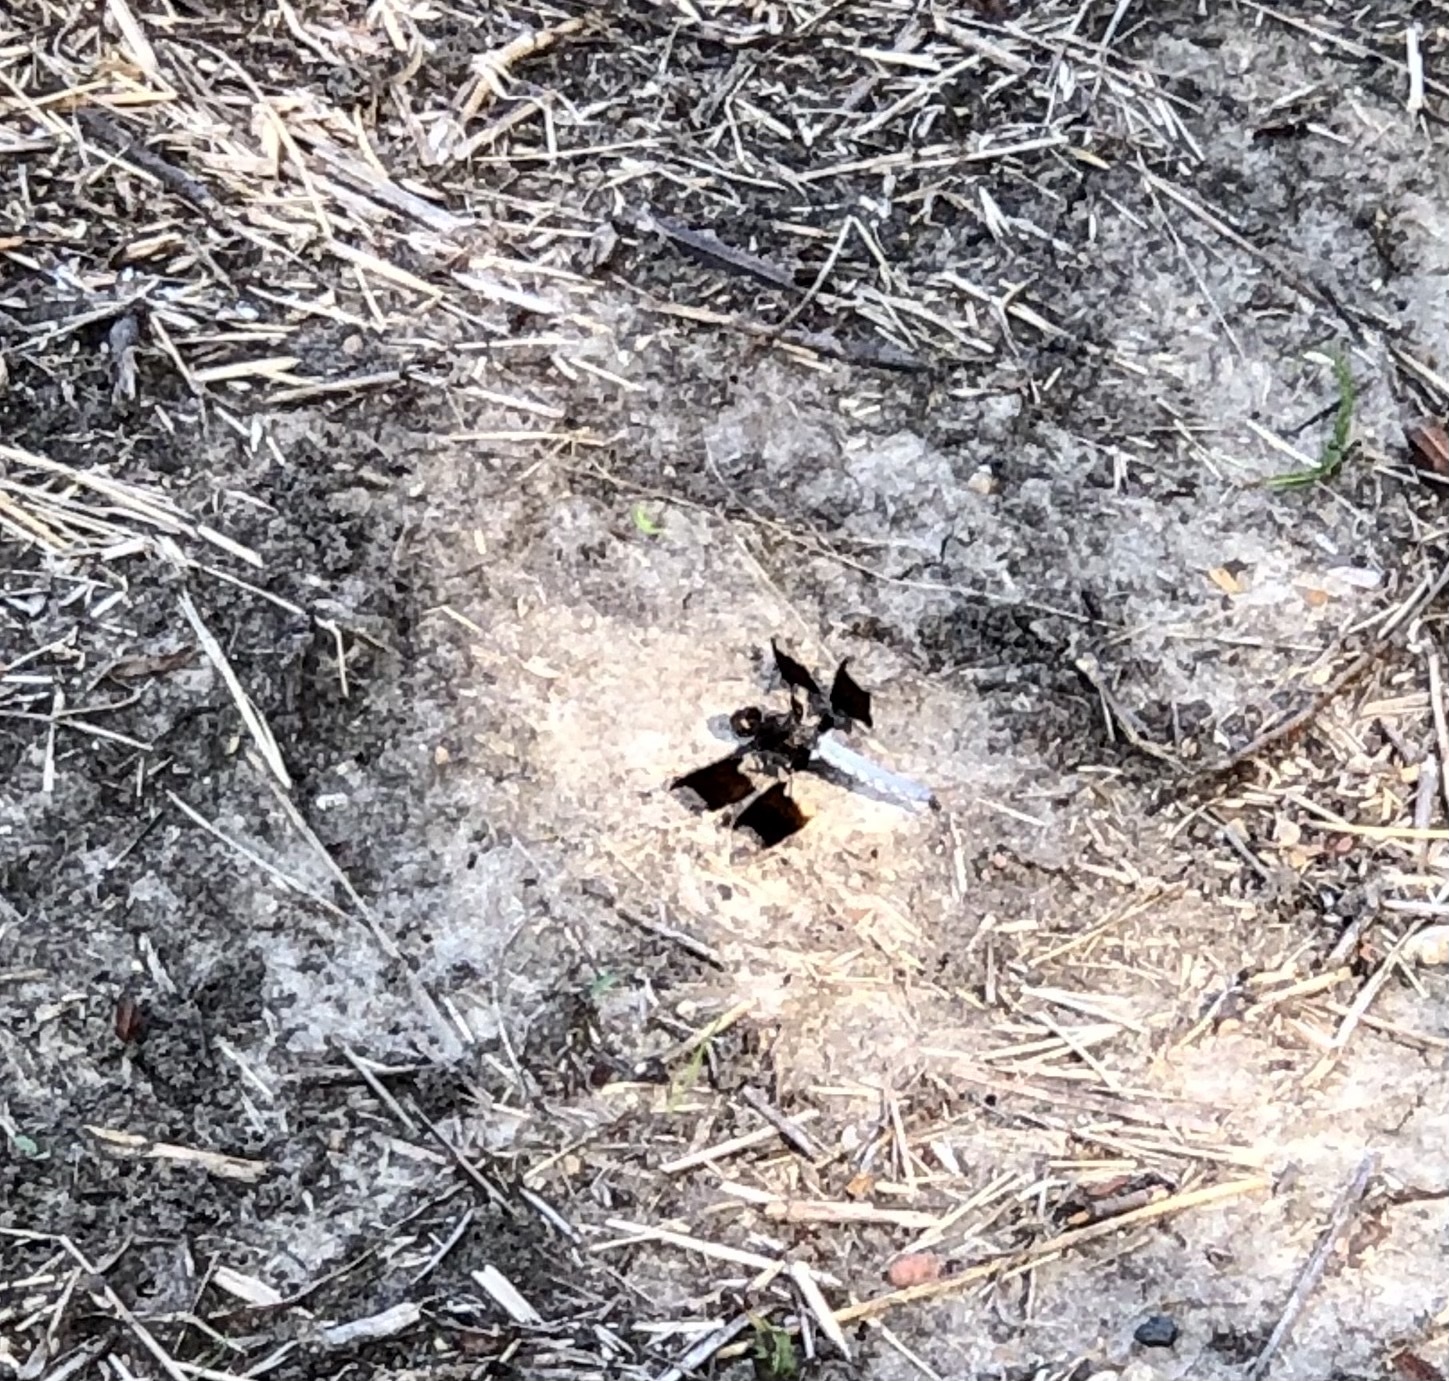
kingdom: Animalia
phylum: Arthropoda
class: Insecta
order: Odonata
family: Libellulidae
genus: Plathemis
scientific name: Plathemis lydia
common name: Common whitetail
